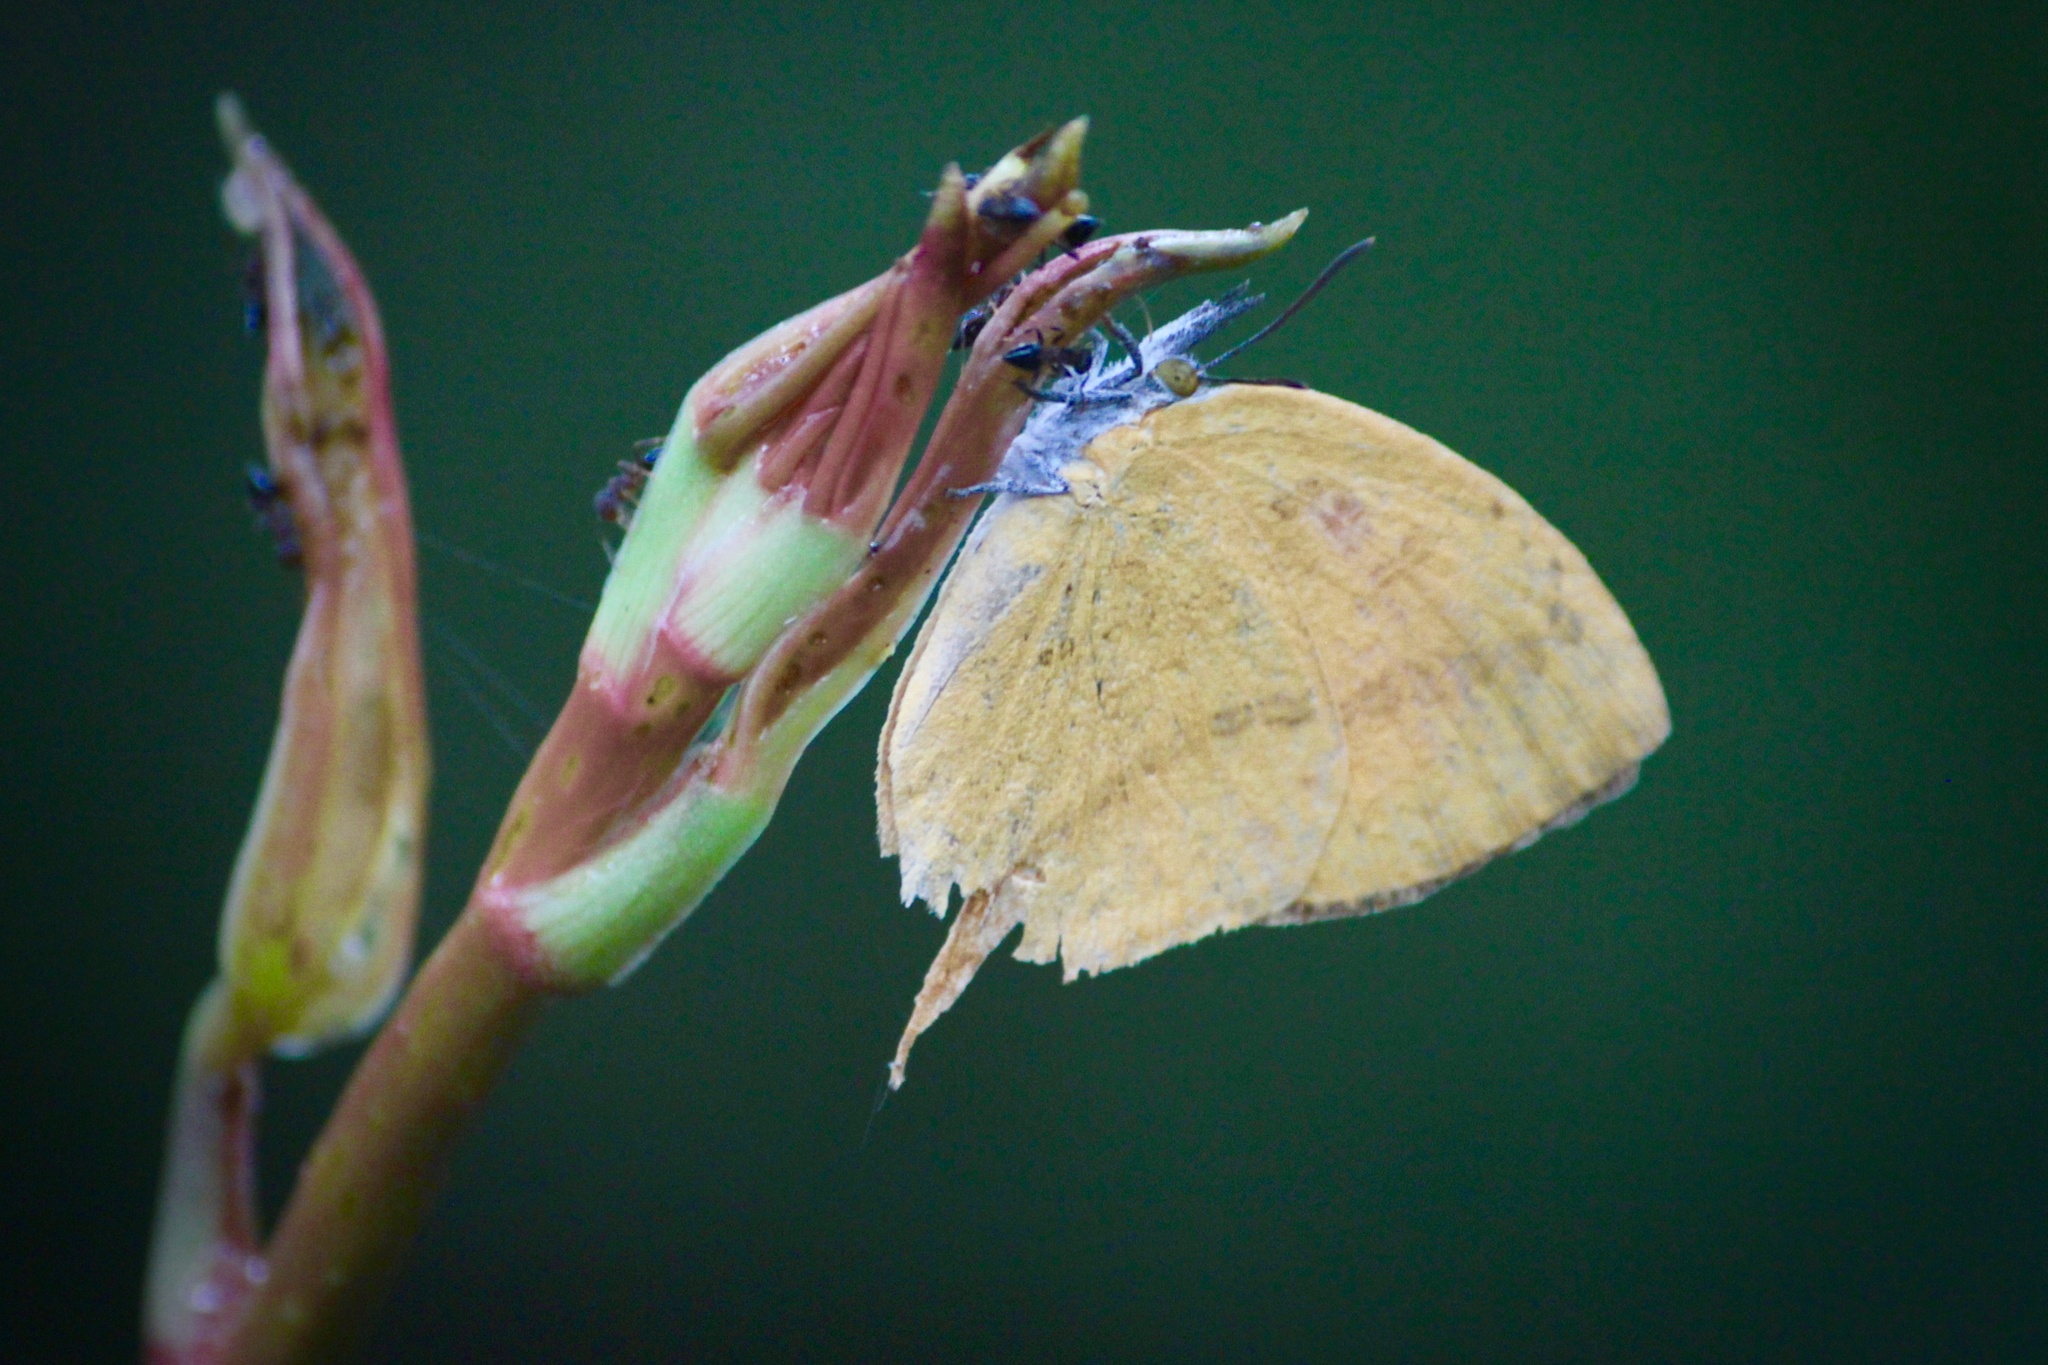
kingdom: Animalia
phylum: Arthropoda
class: Insecta
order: Lepidoptera
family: Lycaenidae
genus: Loxura
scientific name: Loxura atymnus
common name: Common yamfly
